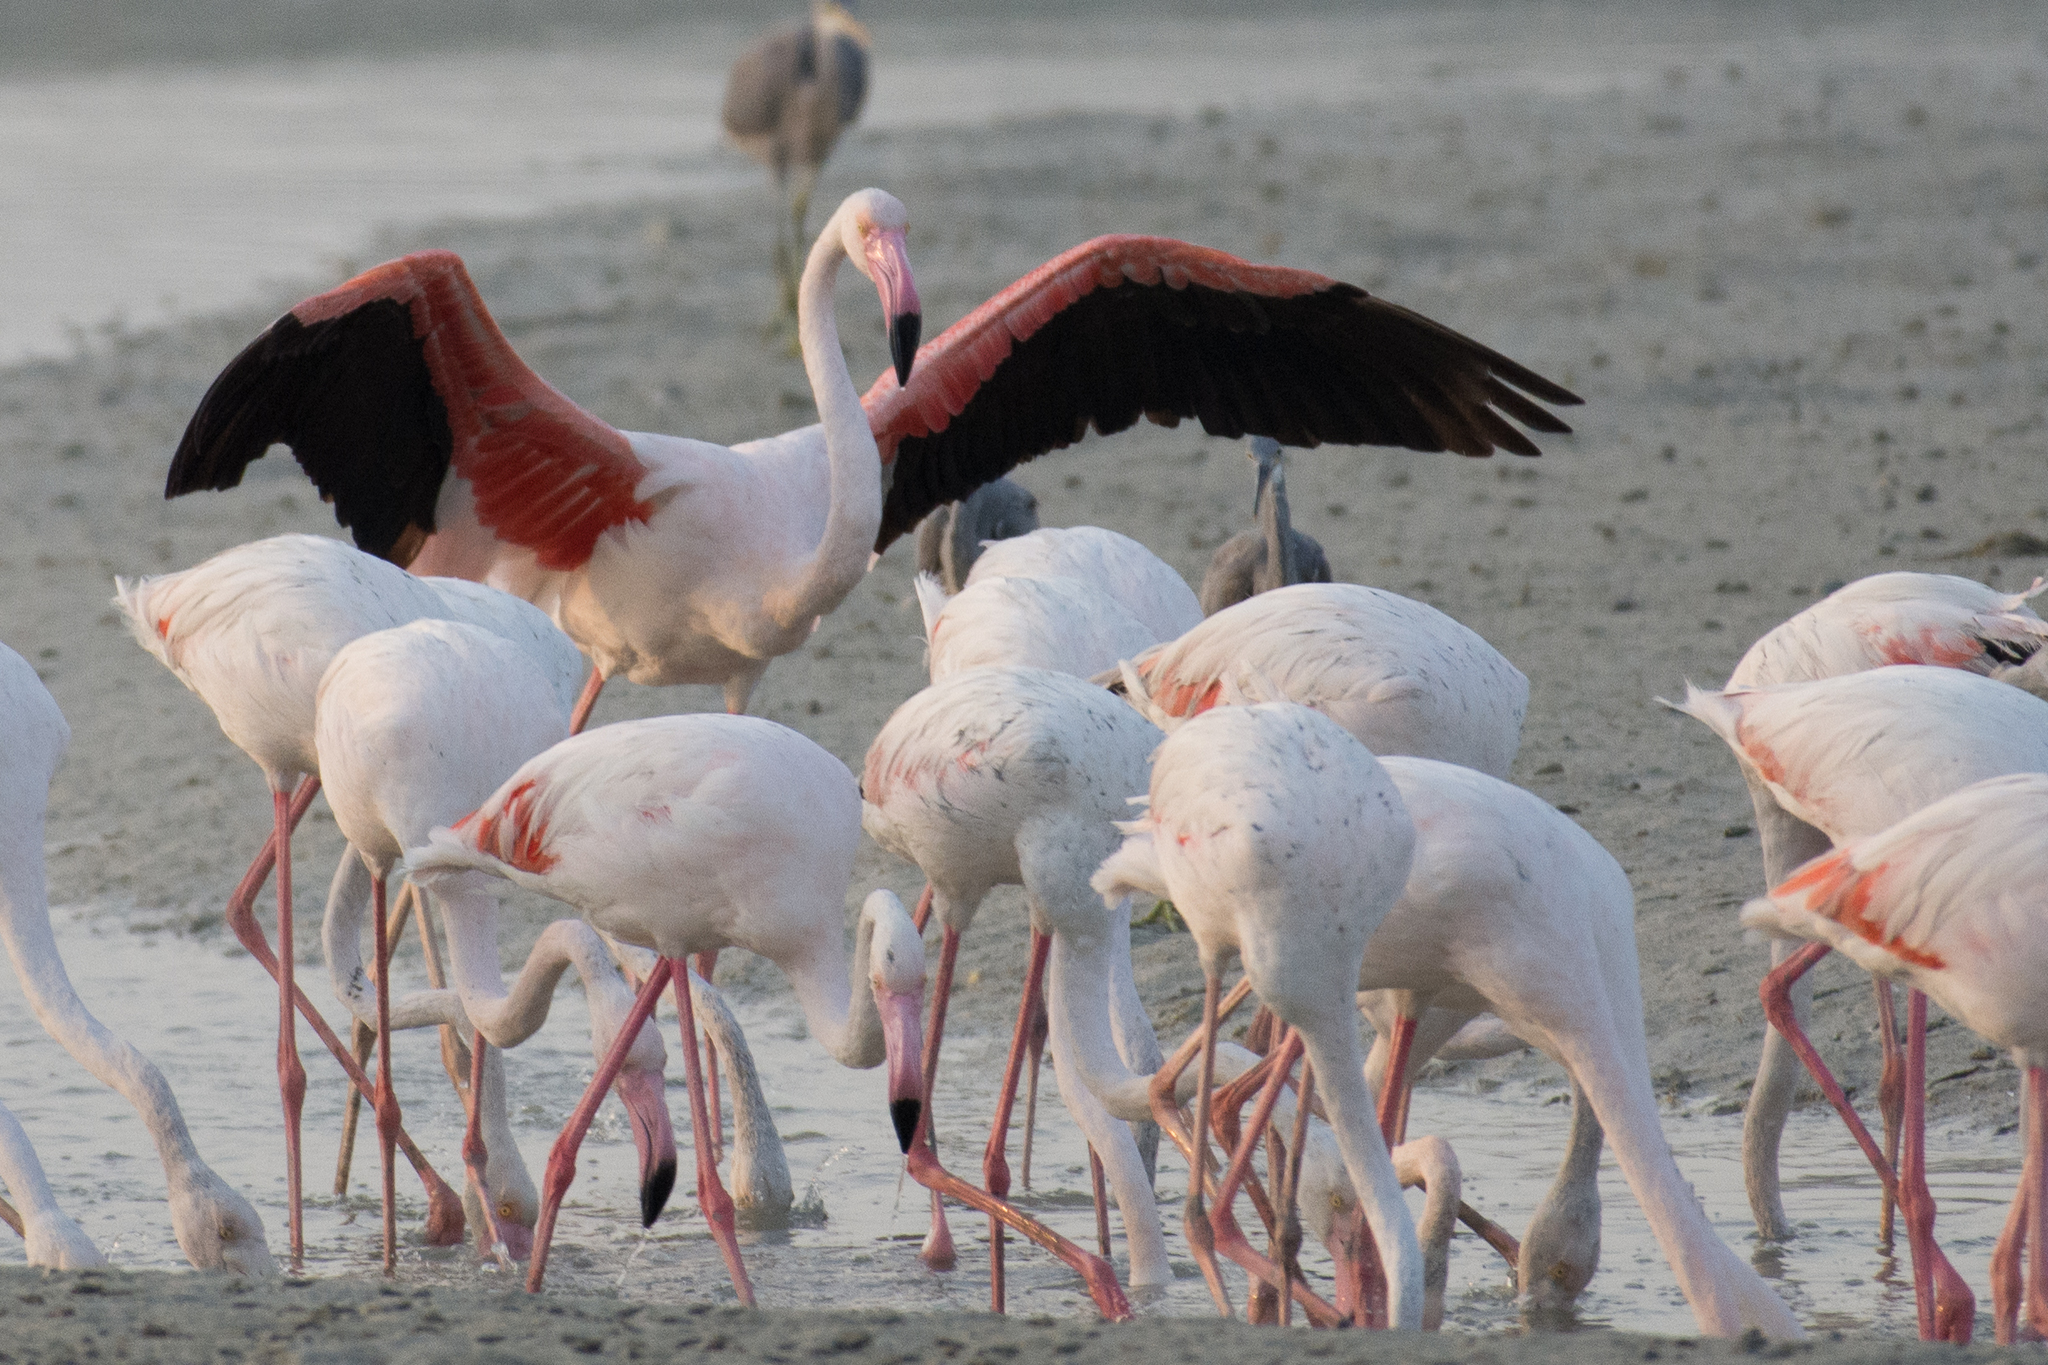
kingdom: Animalia
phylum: Chordata
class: Aves
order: Phoenicopteriformes
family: Phoenicopteridae
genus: Phoenicopterus
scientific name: Phoenicopterus roseus
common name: Greater flamingo
